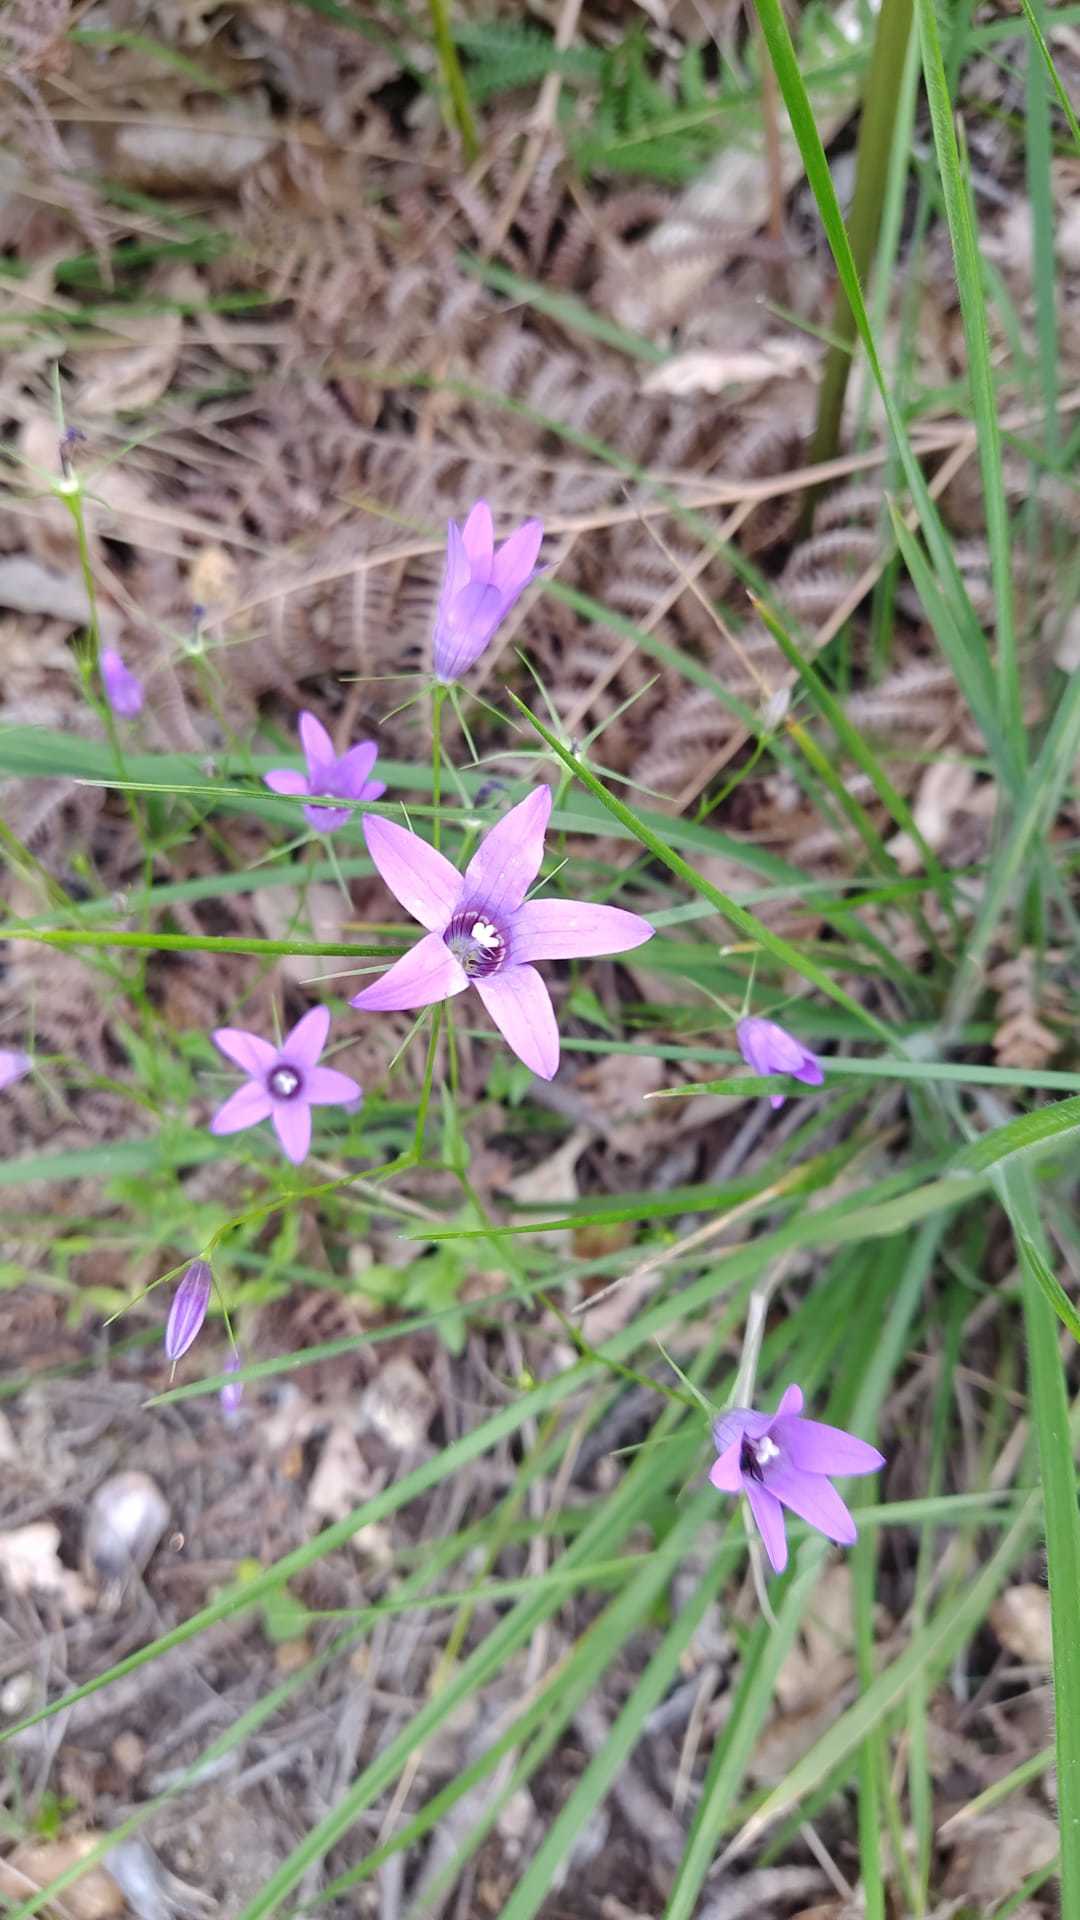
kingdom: Plantae
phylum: Tracheophyta
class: Magnoliopsida
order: Asterales
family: Campanulaceae
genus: Campanula
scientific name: Campanula lusitanica
